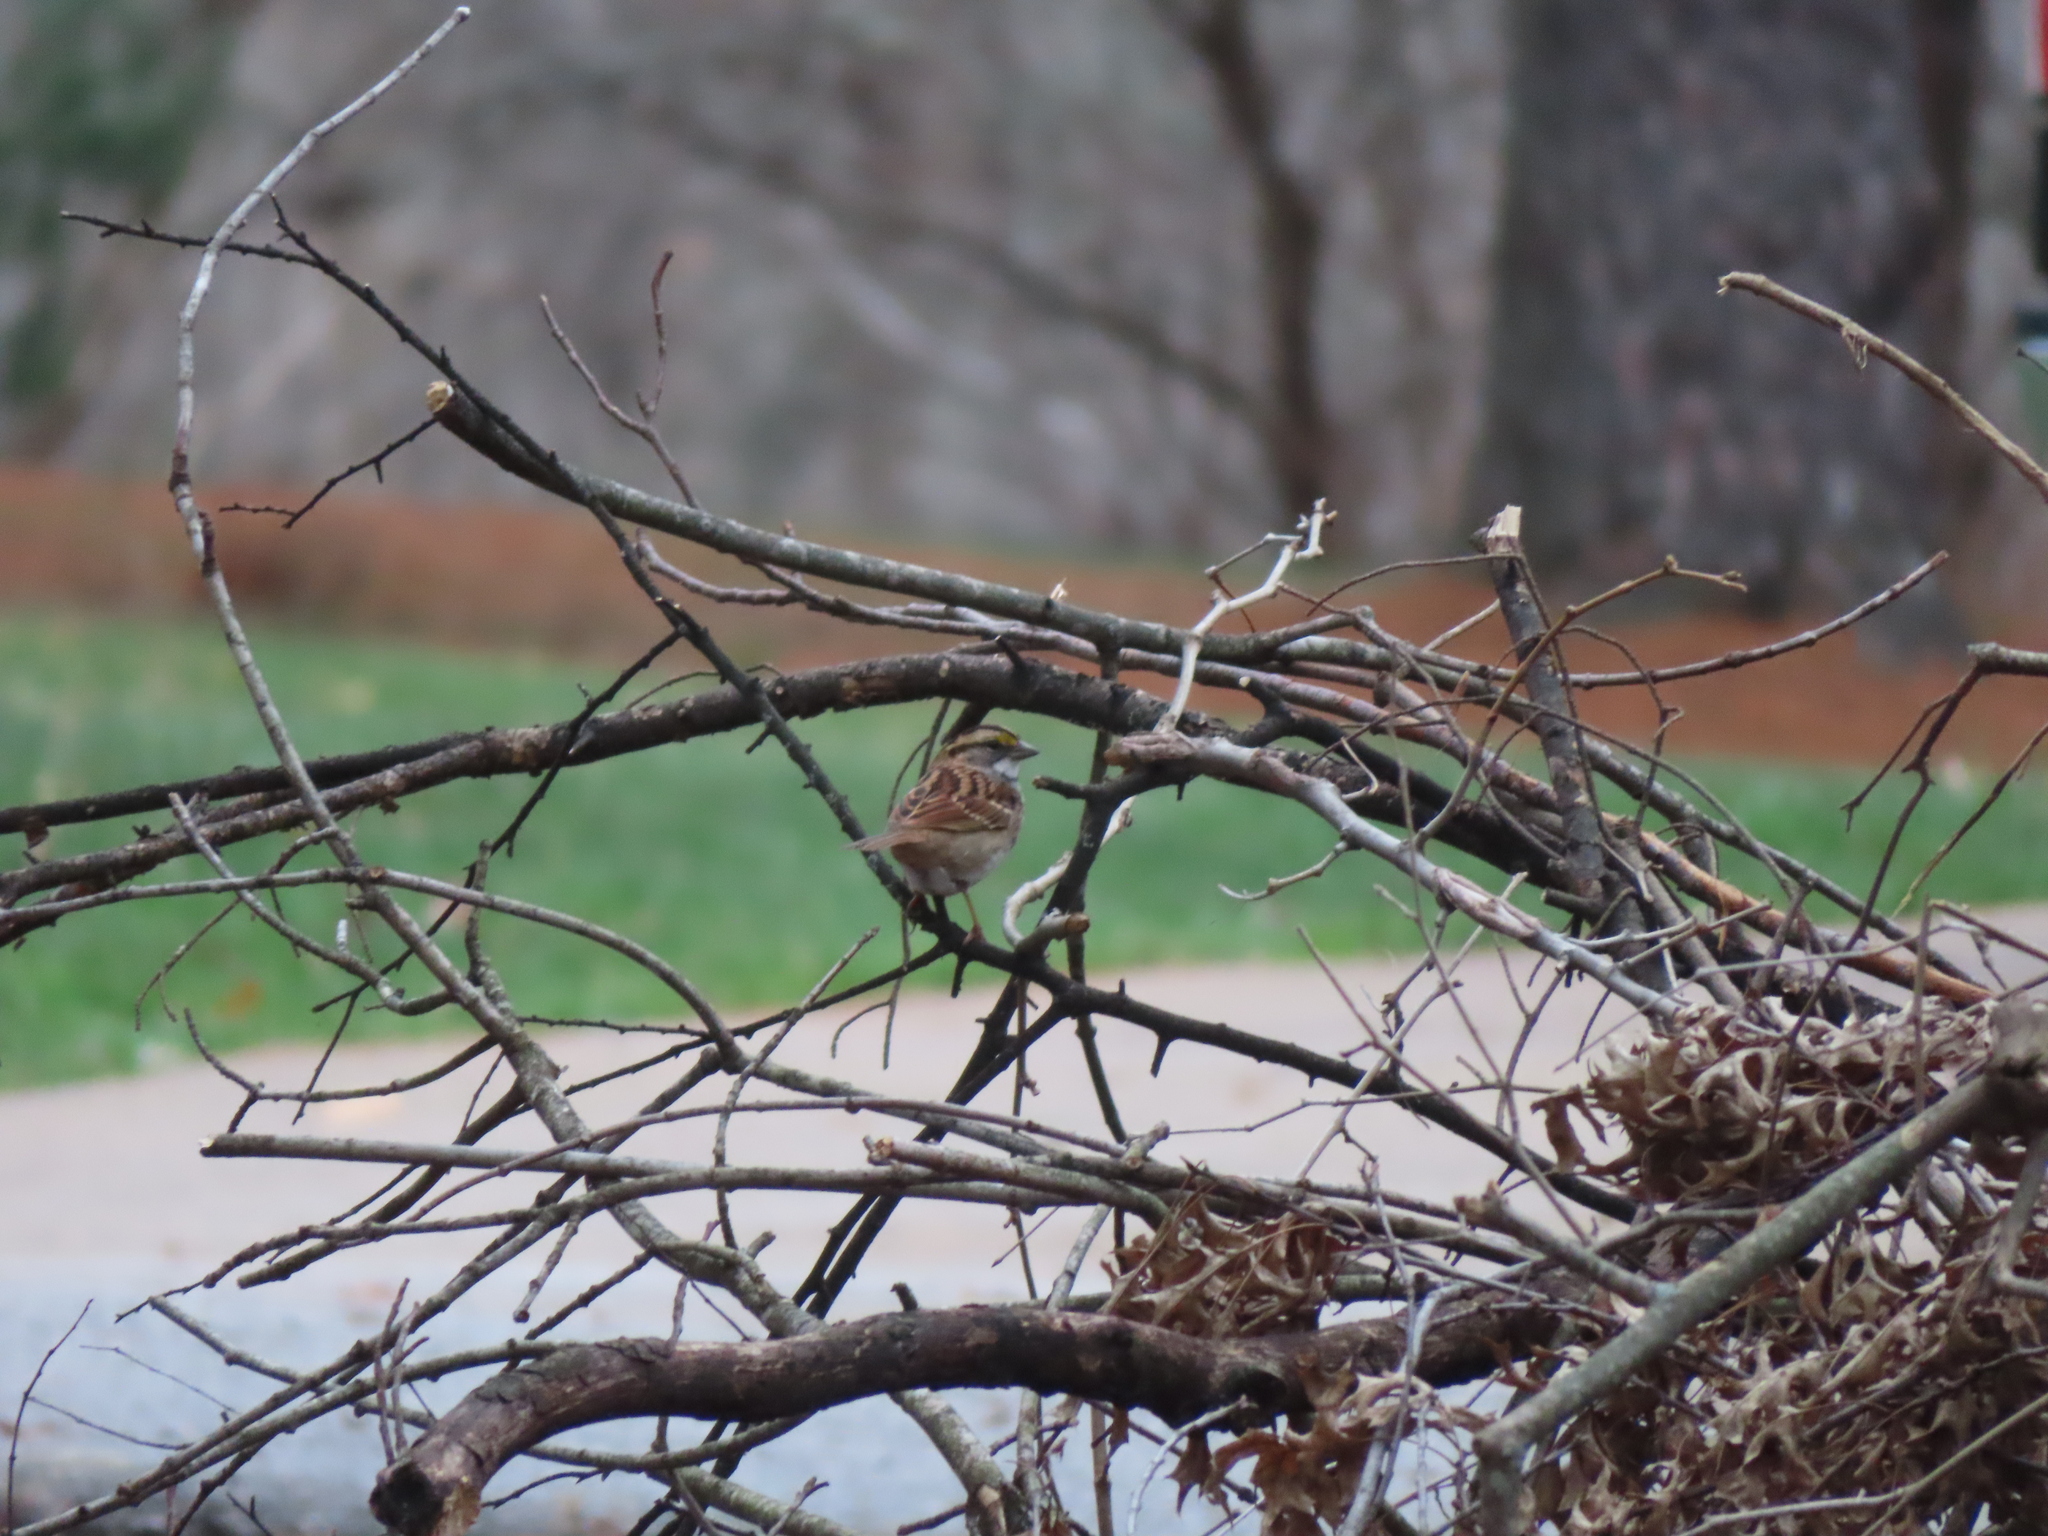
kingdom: Animalia
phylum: Chordata
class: Aves
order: Passeriformes
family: Passerellidae
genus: Zonotrichia
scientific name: Zonotrichia albicollis
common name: White-throated sparrow
